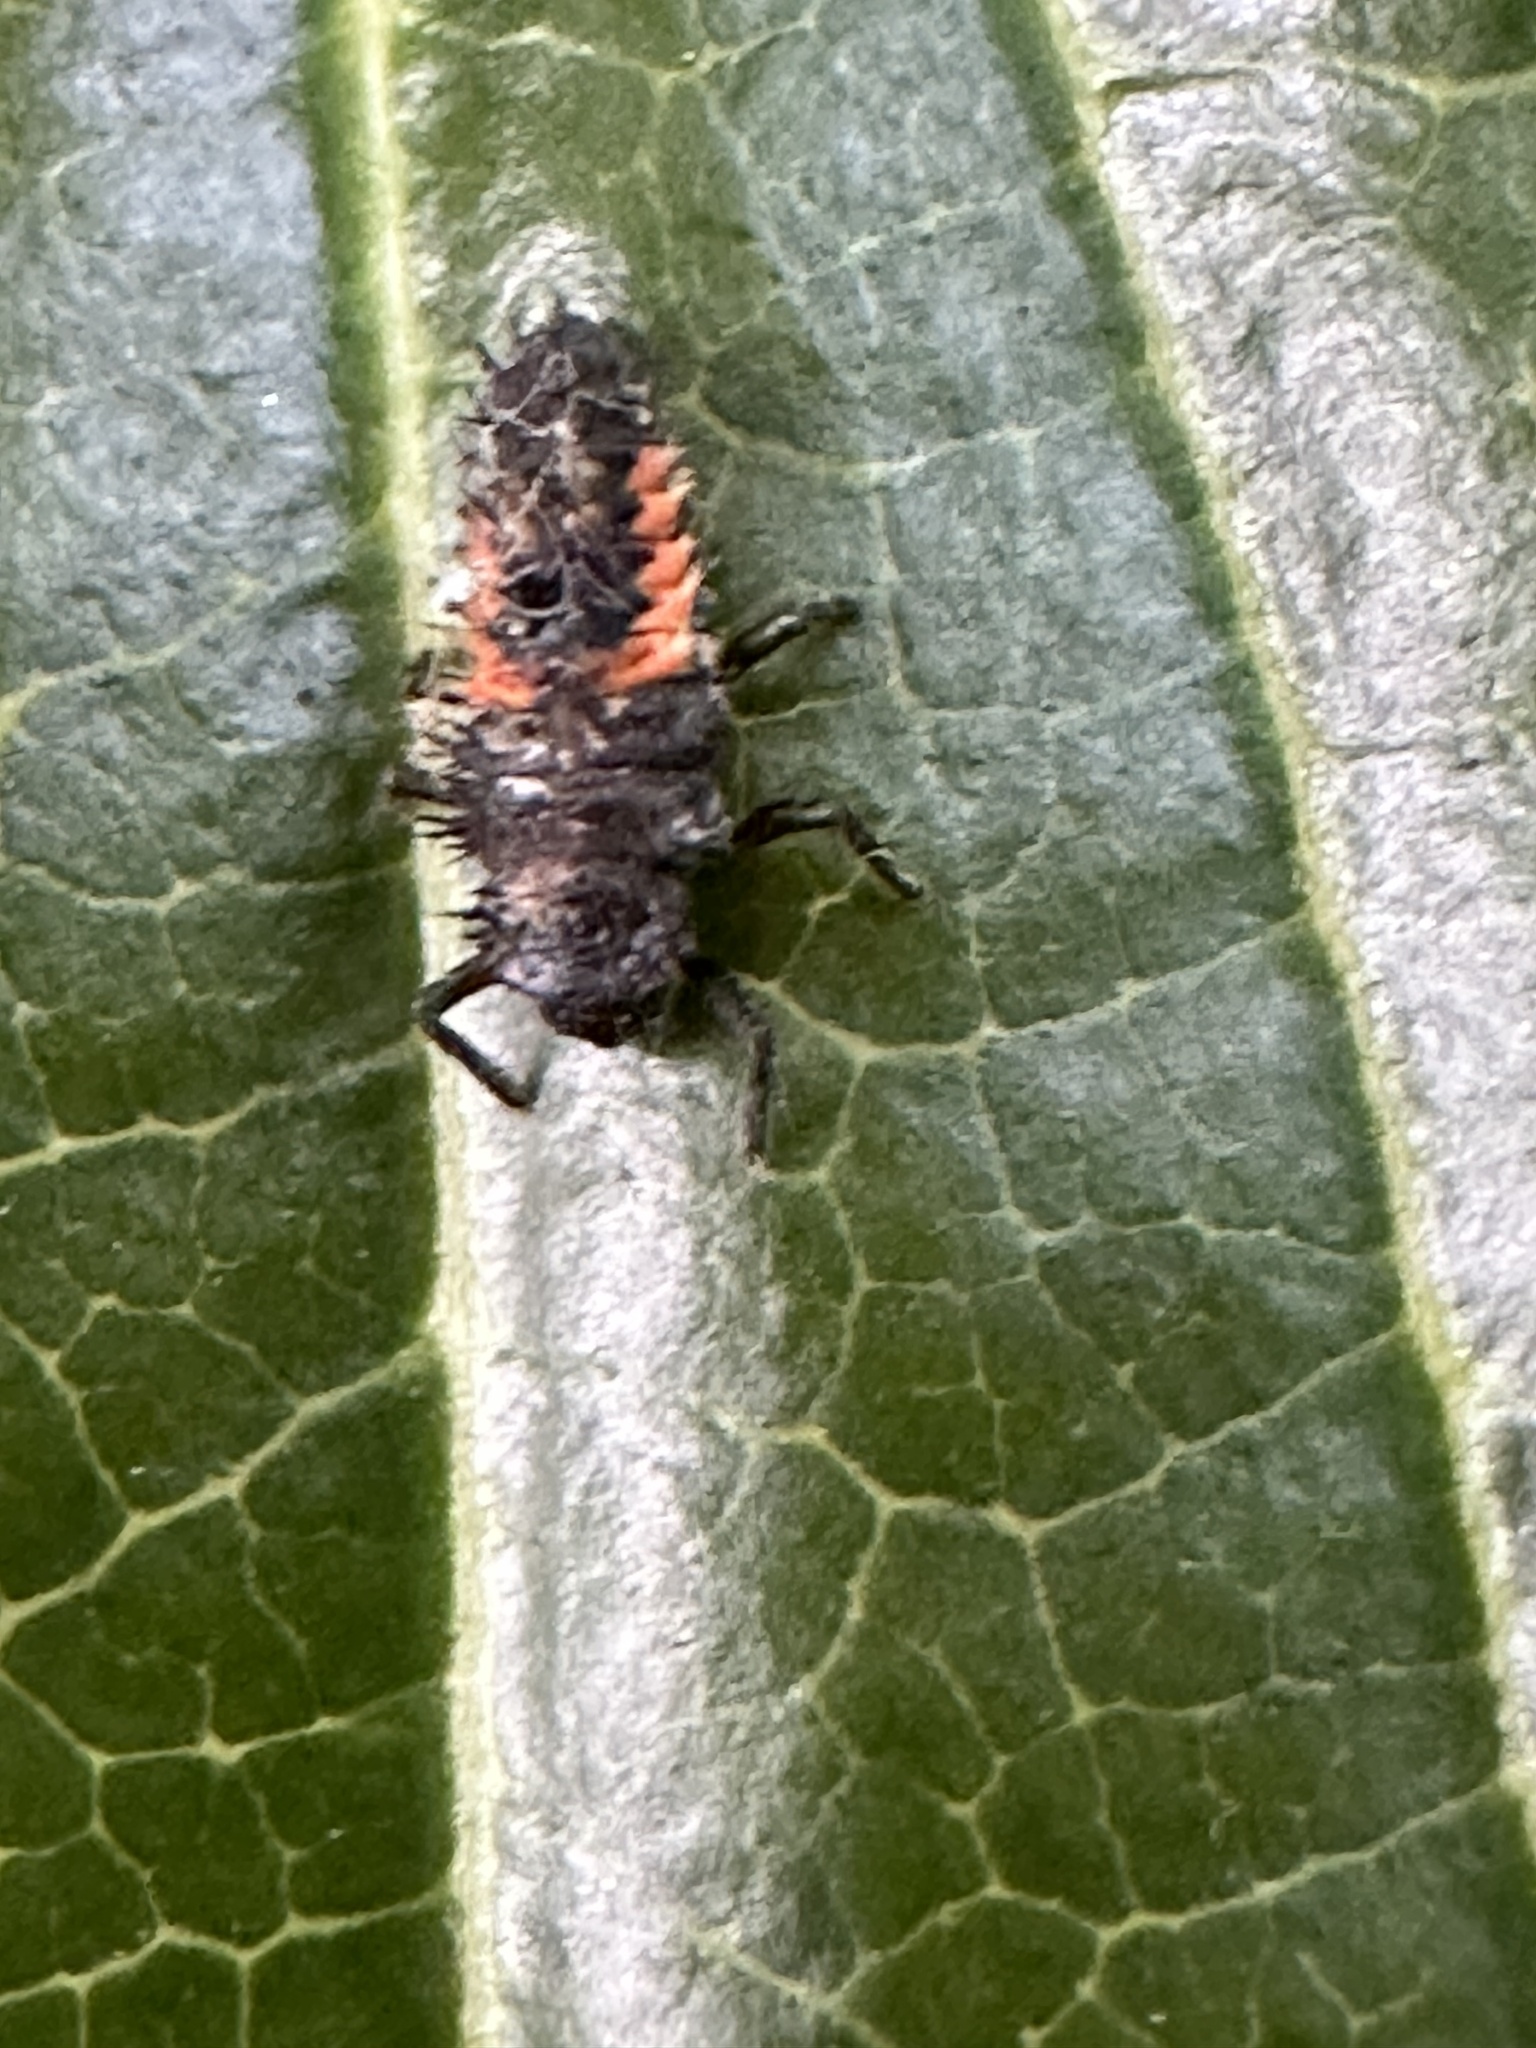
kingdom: Animalia
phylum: Arthropoda
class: Insecta
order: Coleoptera
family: Coccinellidae
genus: Harmonia
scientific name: Harmonia axyridis
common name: Harlequin ladybird
